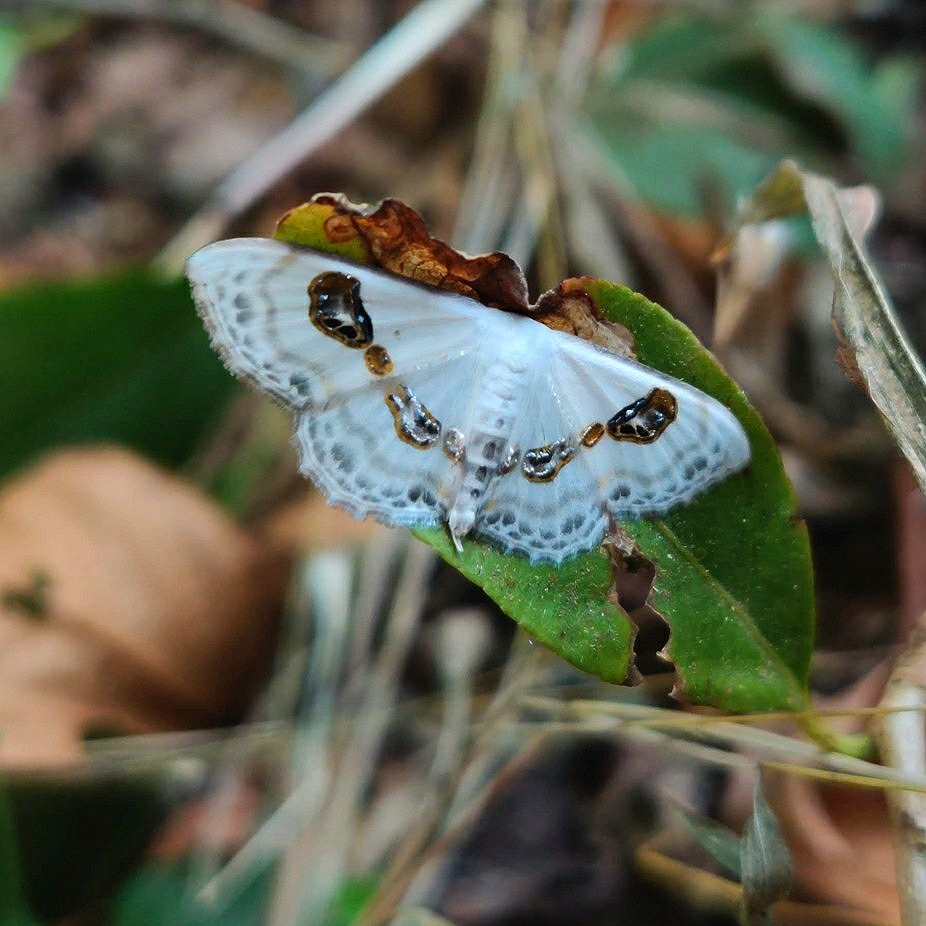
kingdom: Animalia
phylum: Arthropoda
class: Insecta
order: Lepidoptera
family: Geometridae
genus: Problepsis
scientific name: Problepsis vulgaris
